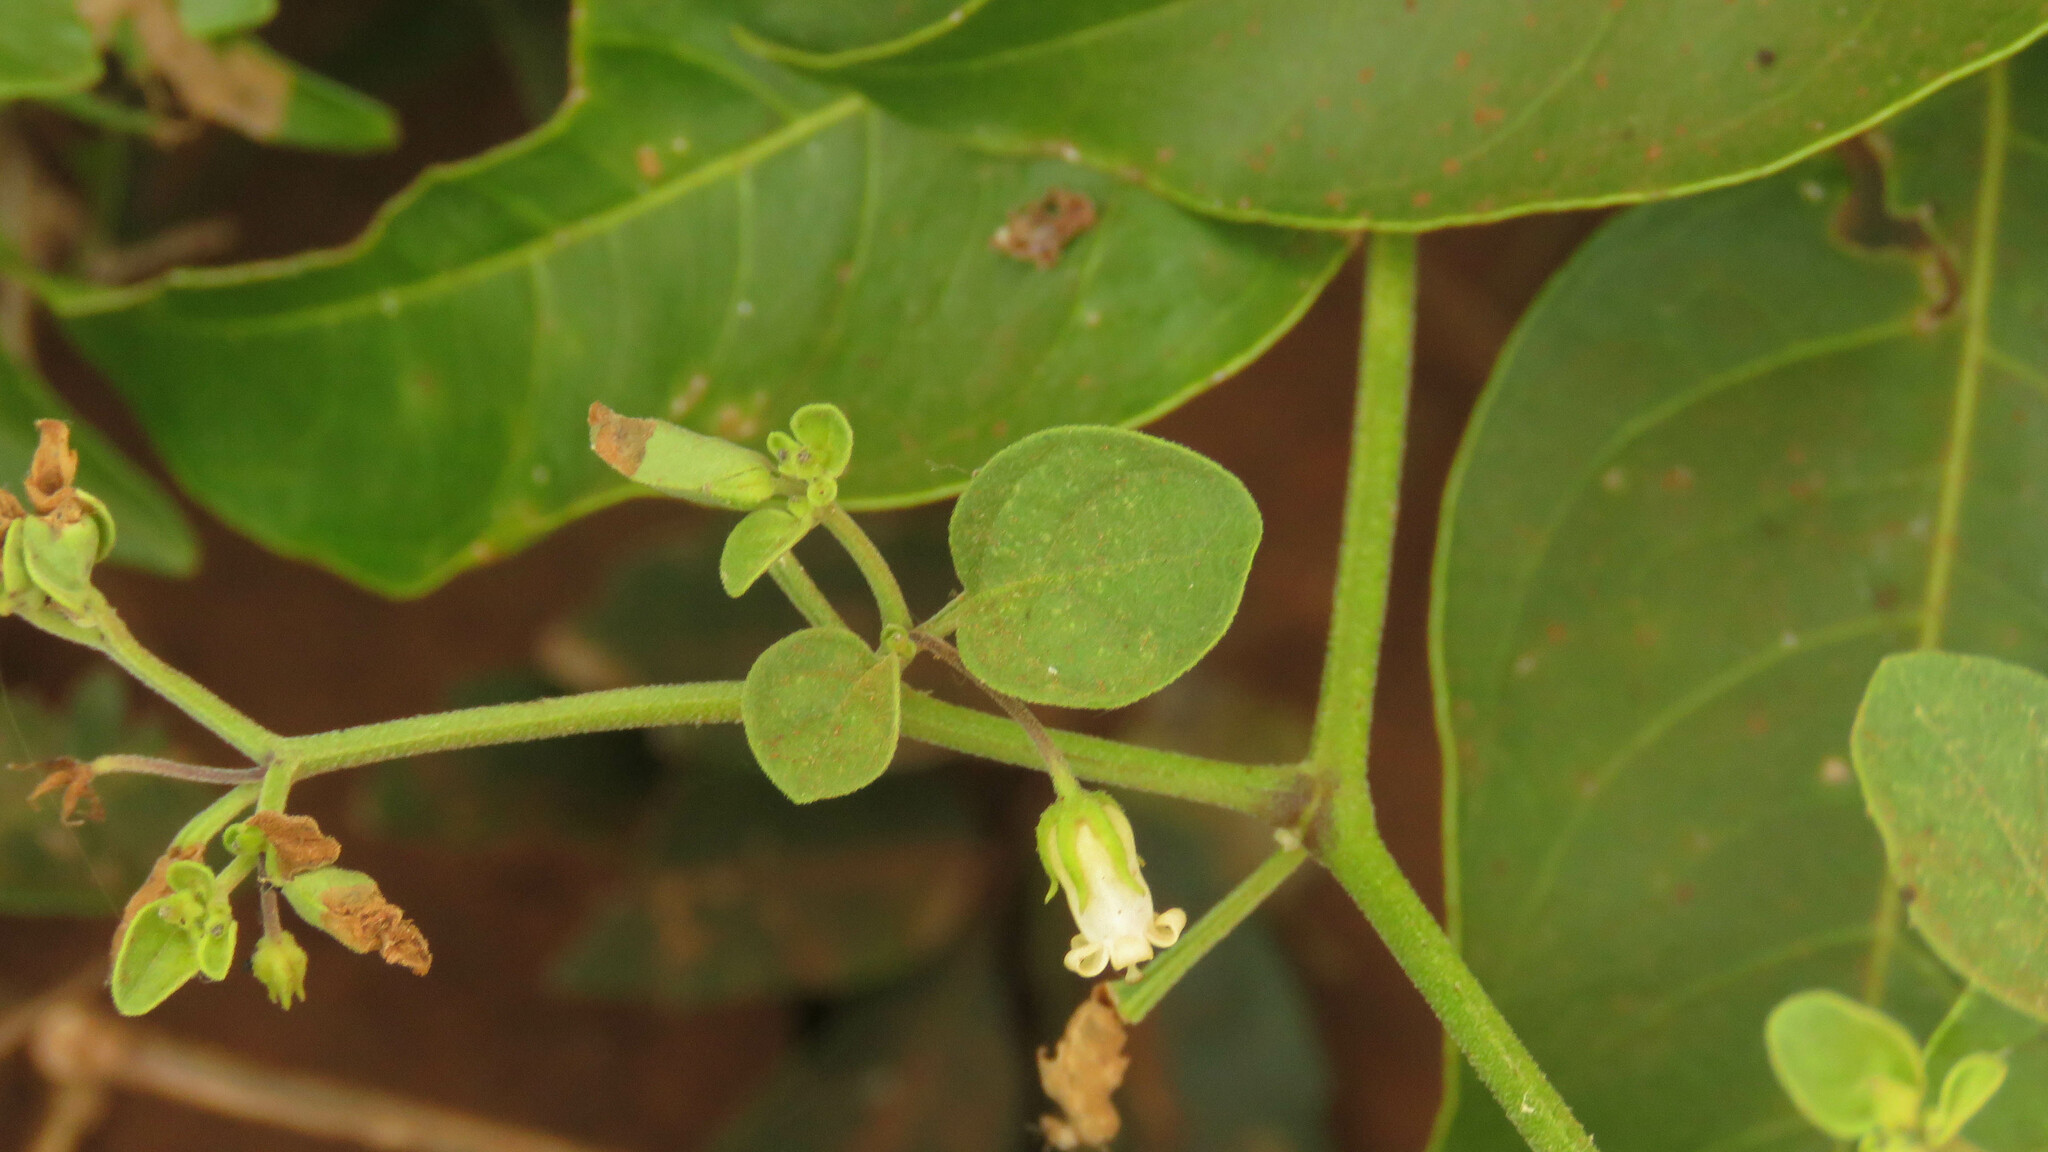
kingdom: Plantae
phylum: Tracheophyta
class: Magnoliopsida
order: Solanales
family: Solanaceae
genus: Salpichroa
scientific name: Salpichroa origanifolia
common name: Lily-of-the-valley-vine
